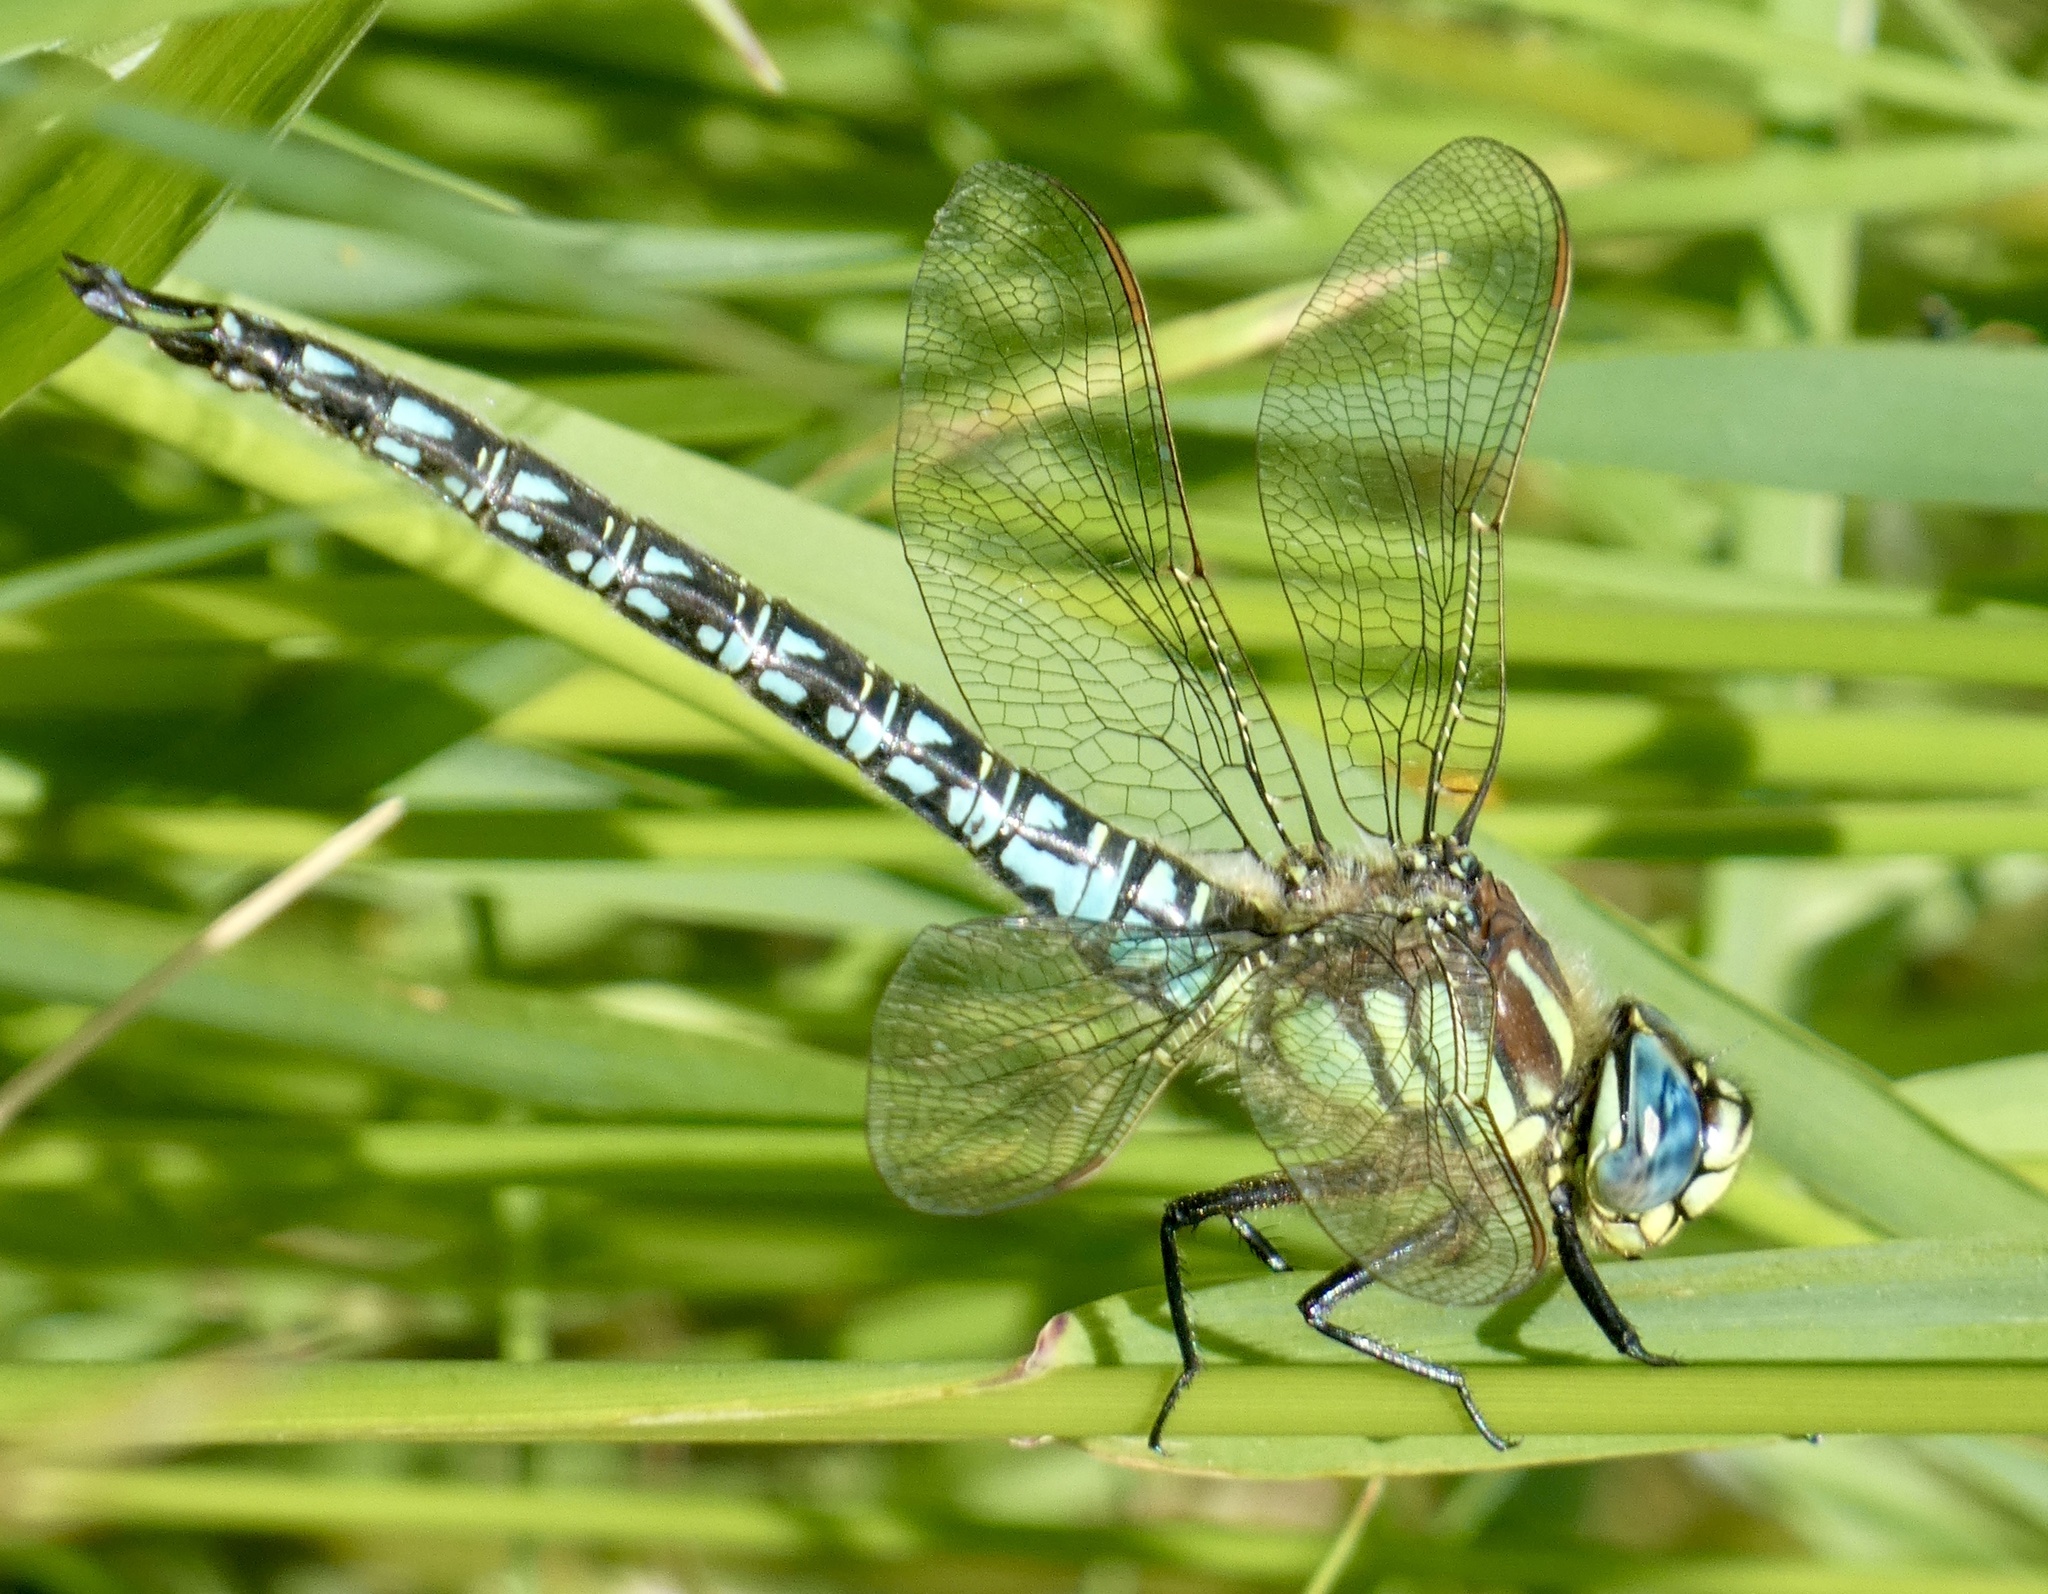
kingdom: Animalia
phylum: Arthropoda
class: Insecta
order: Odonata
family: Aeshnidae
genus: Brachytron
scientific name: Brachytron pratense
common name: Hairy hawker
